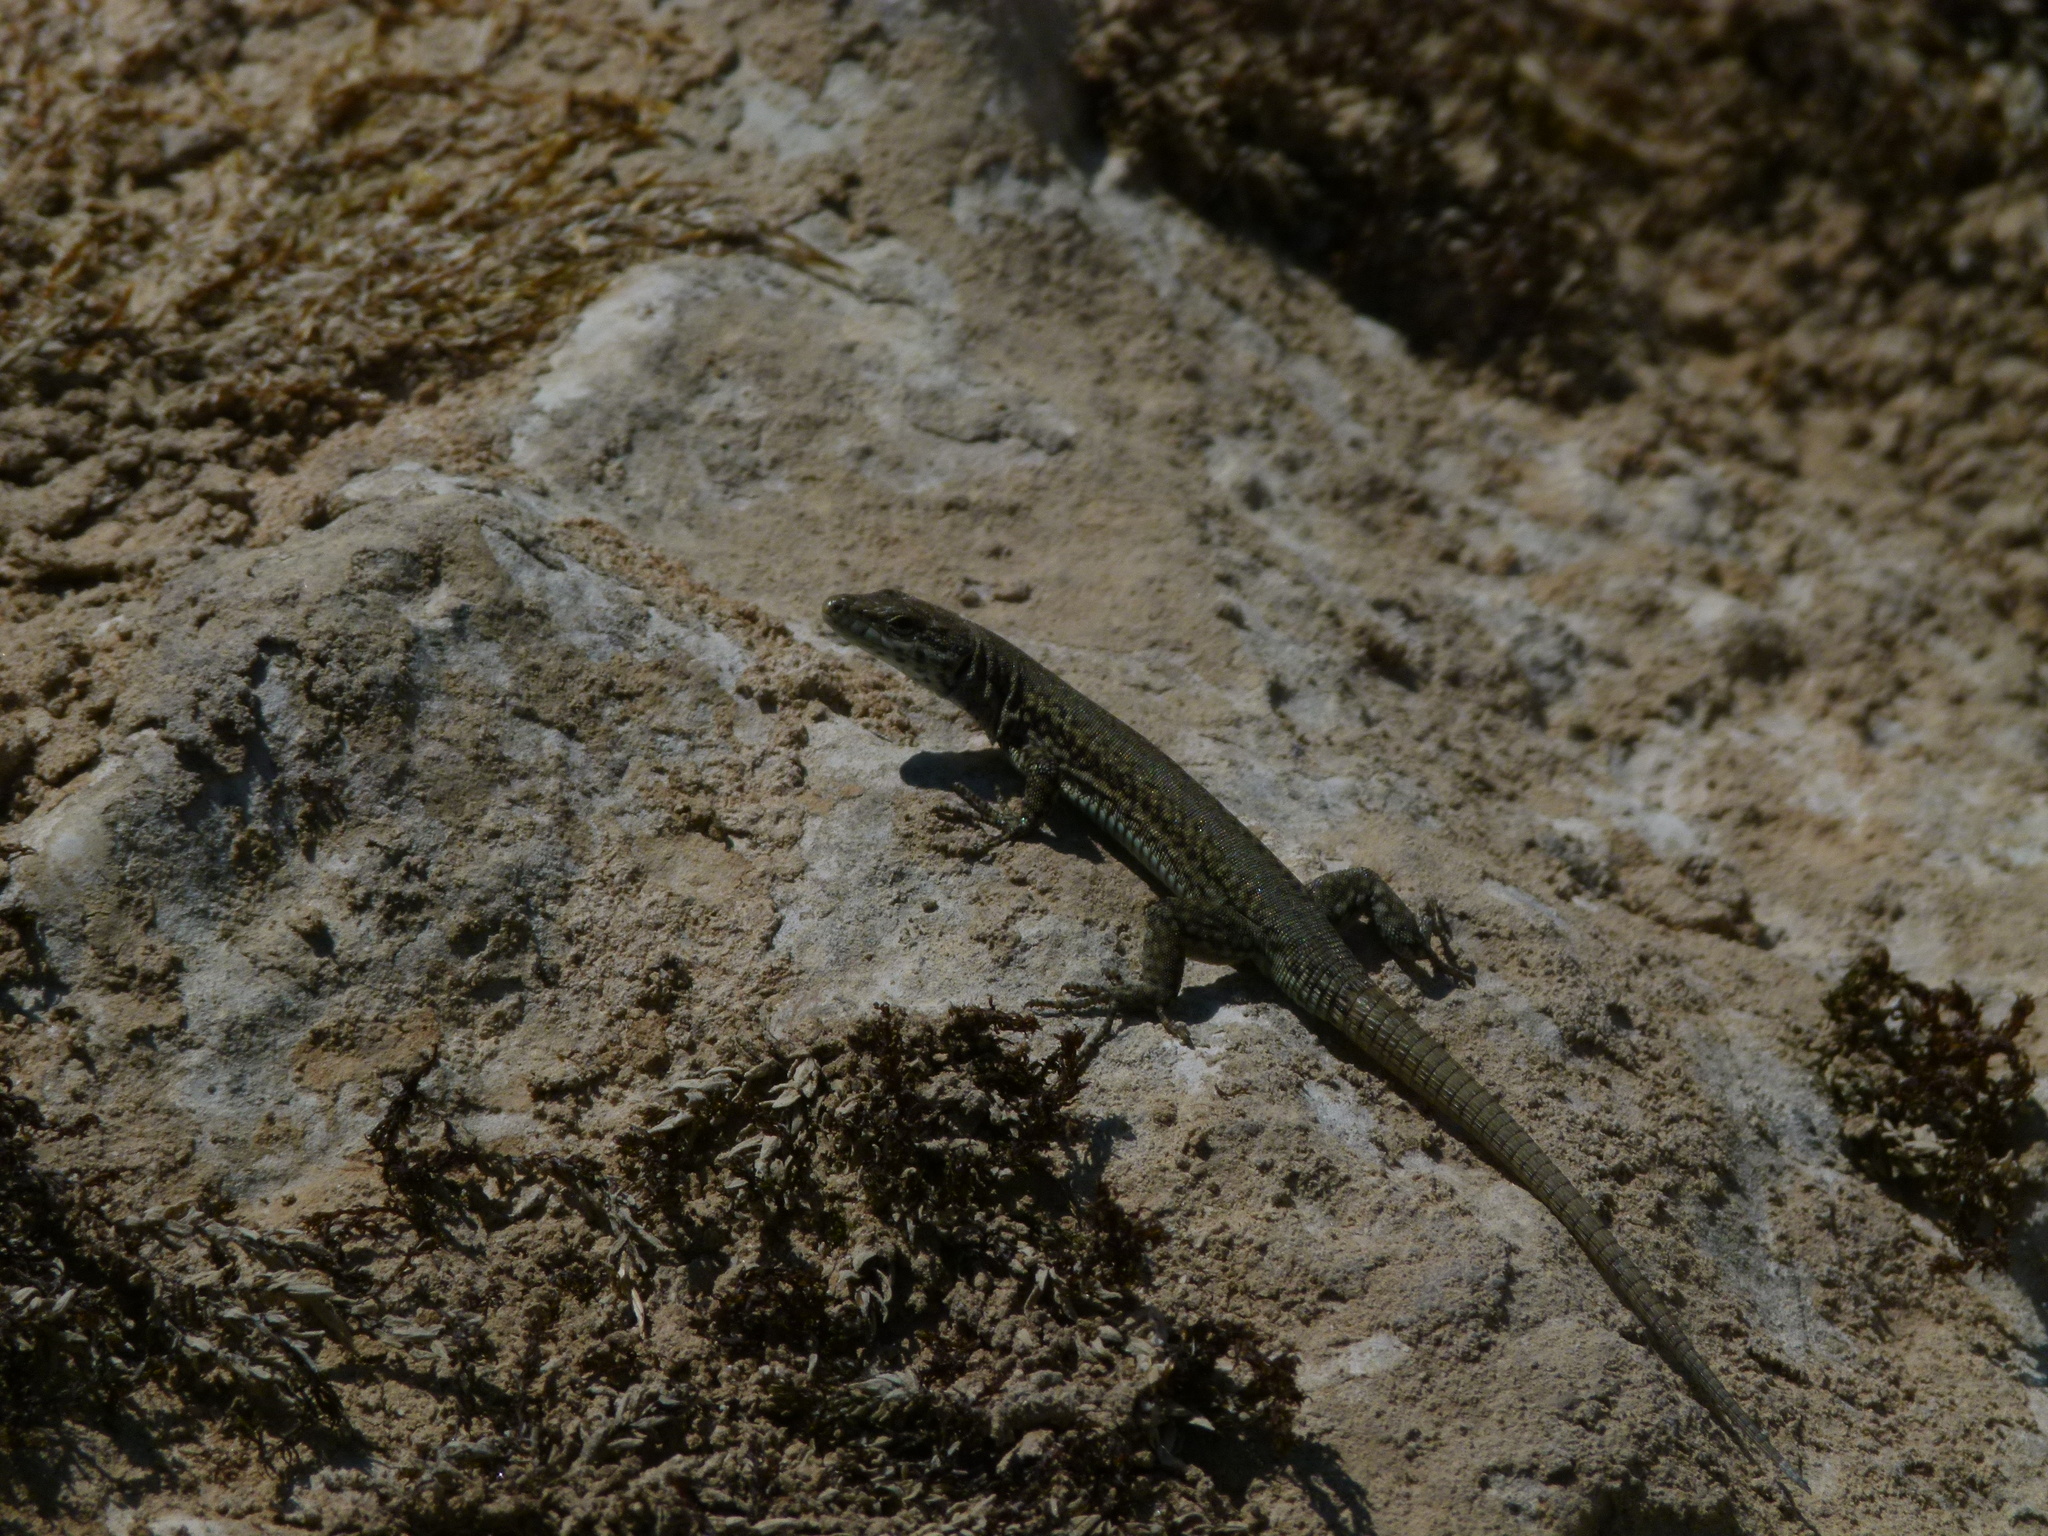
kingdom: Animalia
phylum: Chordata
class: Squamata
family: Lacertidae
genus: Podarcis
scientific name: Podarcis liolepis
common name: Catalonian wall lizard
